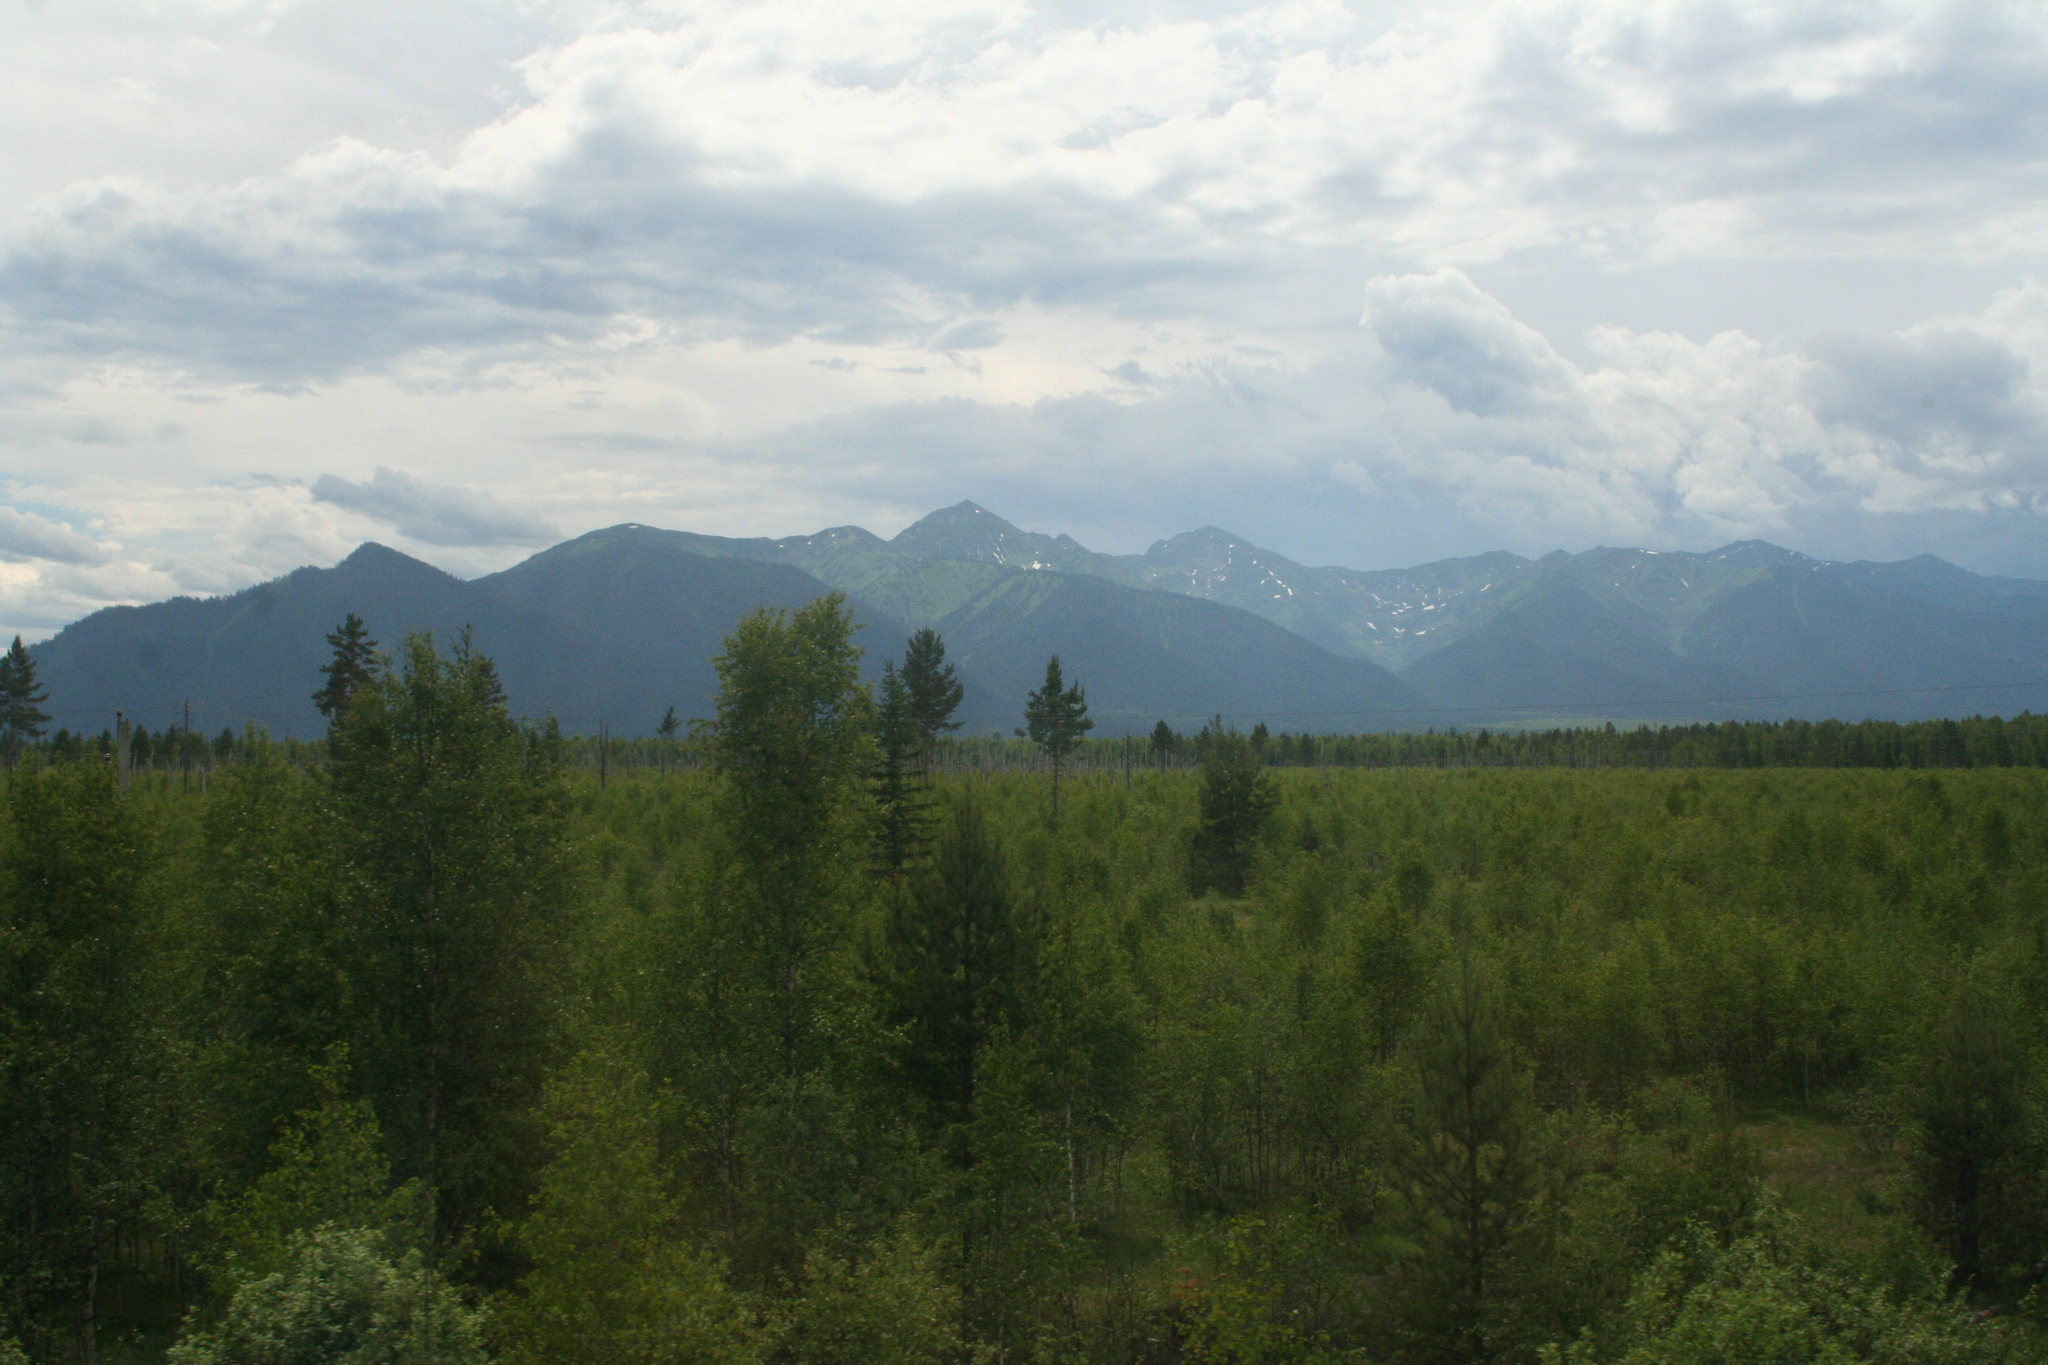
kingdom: Plantae
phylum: Tracheophyta
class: Pinopsida
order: Pinales
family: Pinaceae
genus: Pinus
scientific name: Pinus sylvestris
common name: Scots pine
